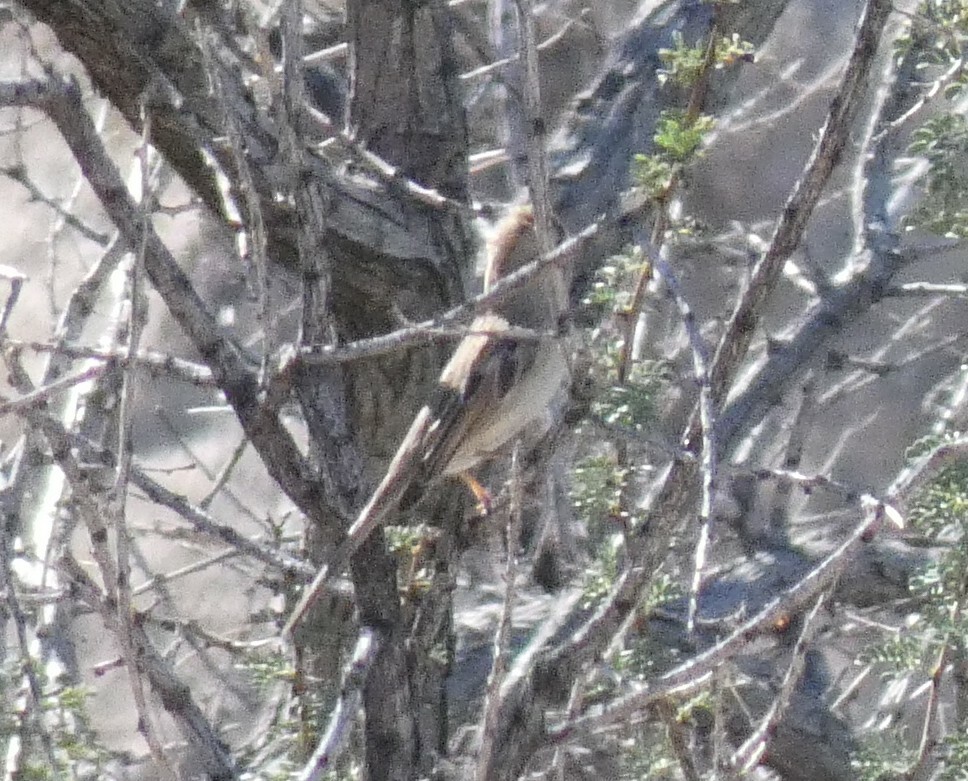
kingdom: Animalia
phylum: Chordata
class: Aves
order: Passeriformes
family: Passerellidae
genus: Spizella
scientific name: Spizella breweri
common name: Brewer's sparrow
